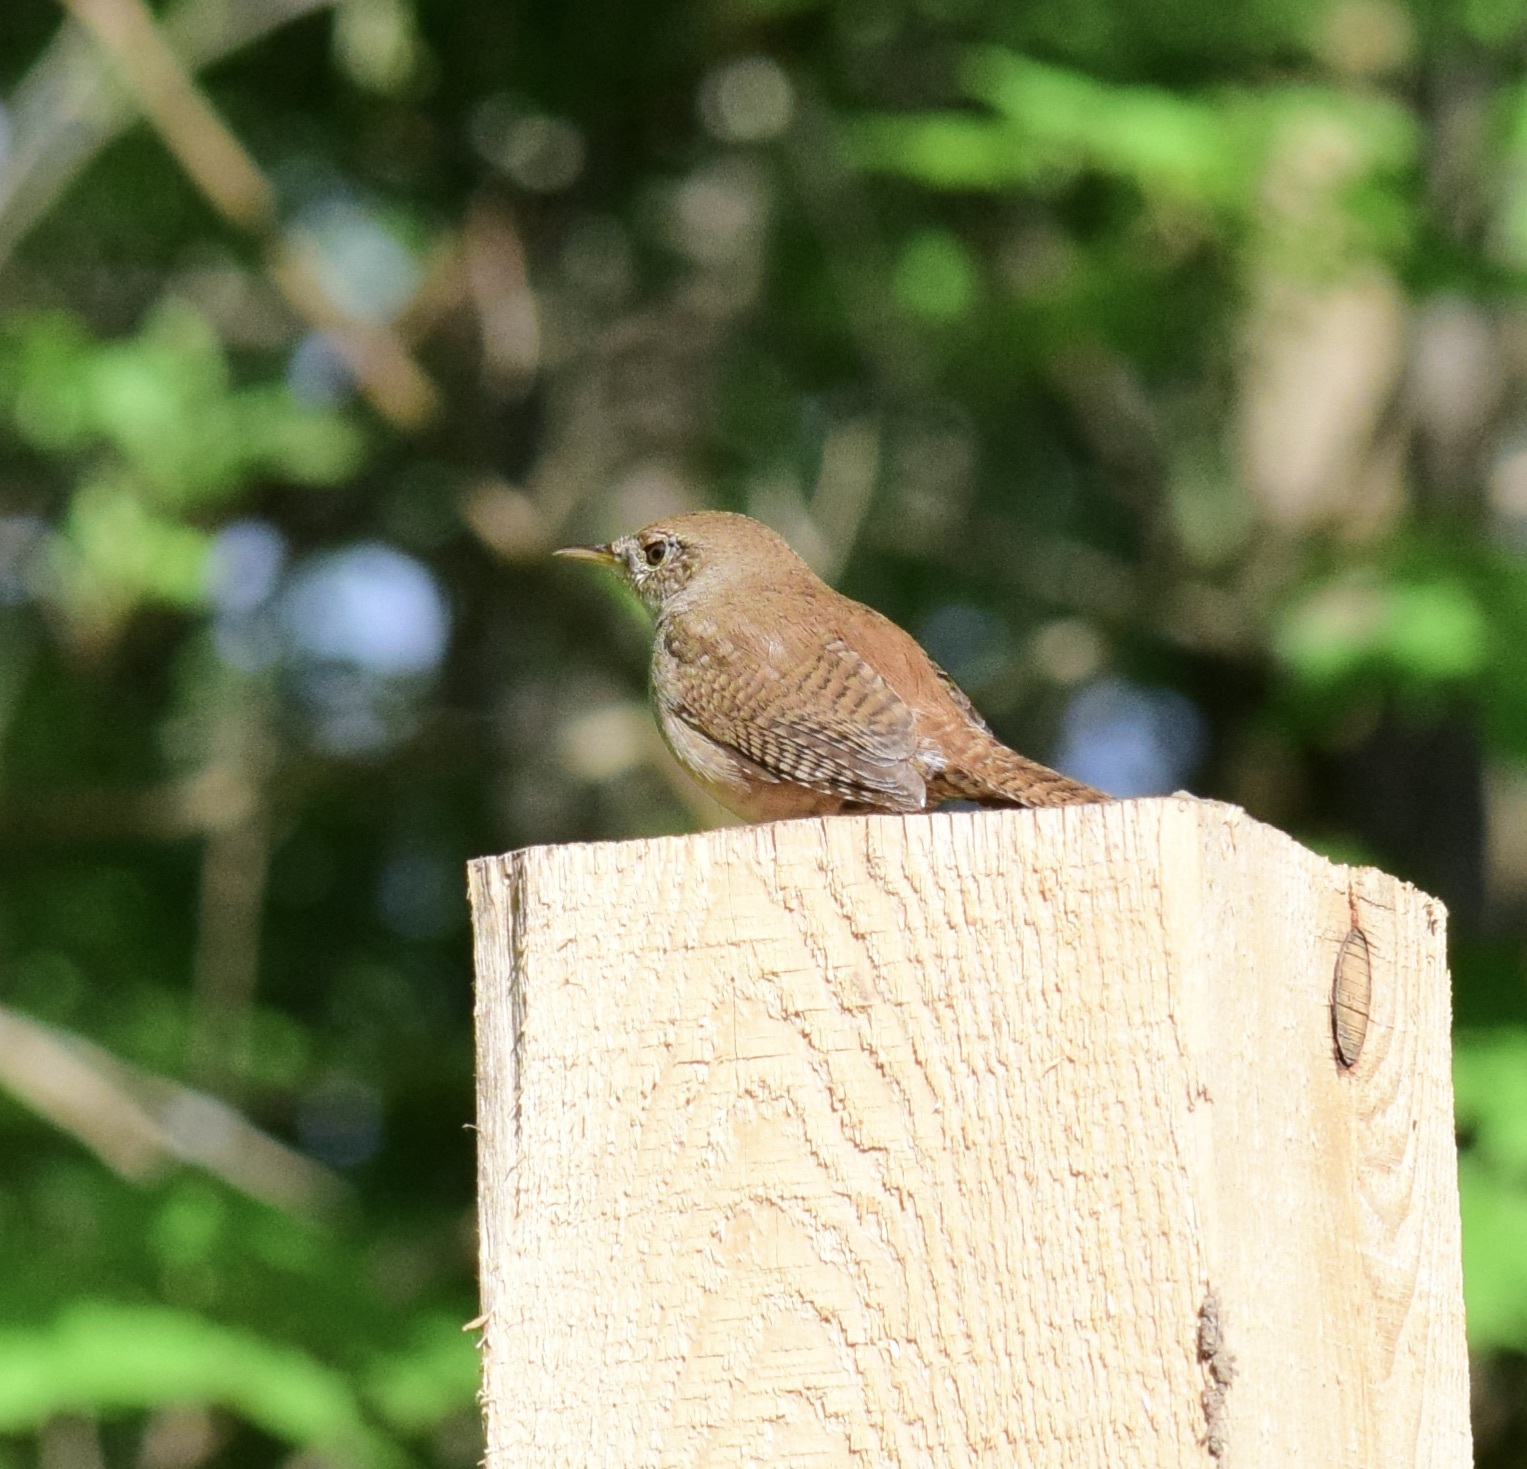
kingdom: Animalia
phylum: Chordata
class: Aves
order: Passeriformes
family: Troglodytidae
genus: Troglodytes
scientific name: Troglodytes aedon
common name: House wren
